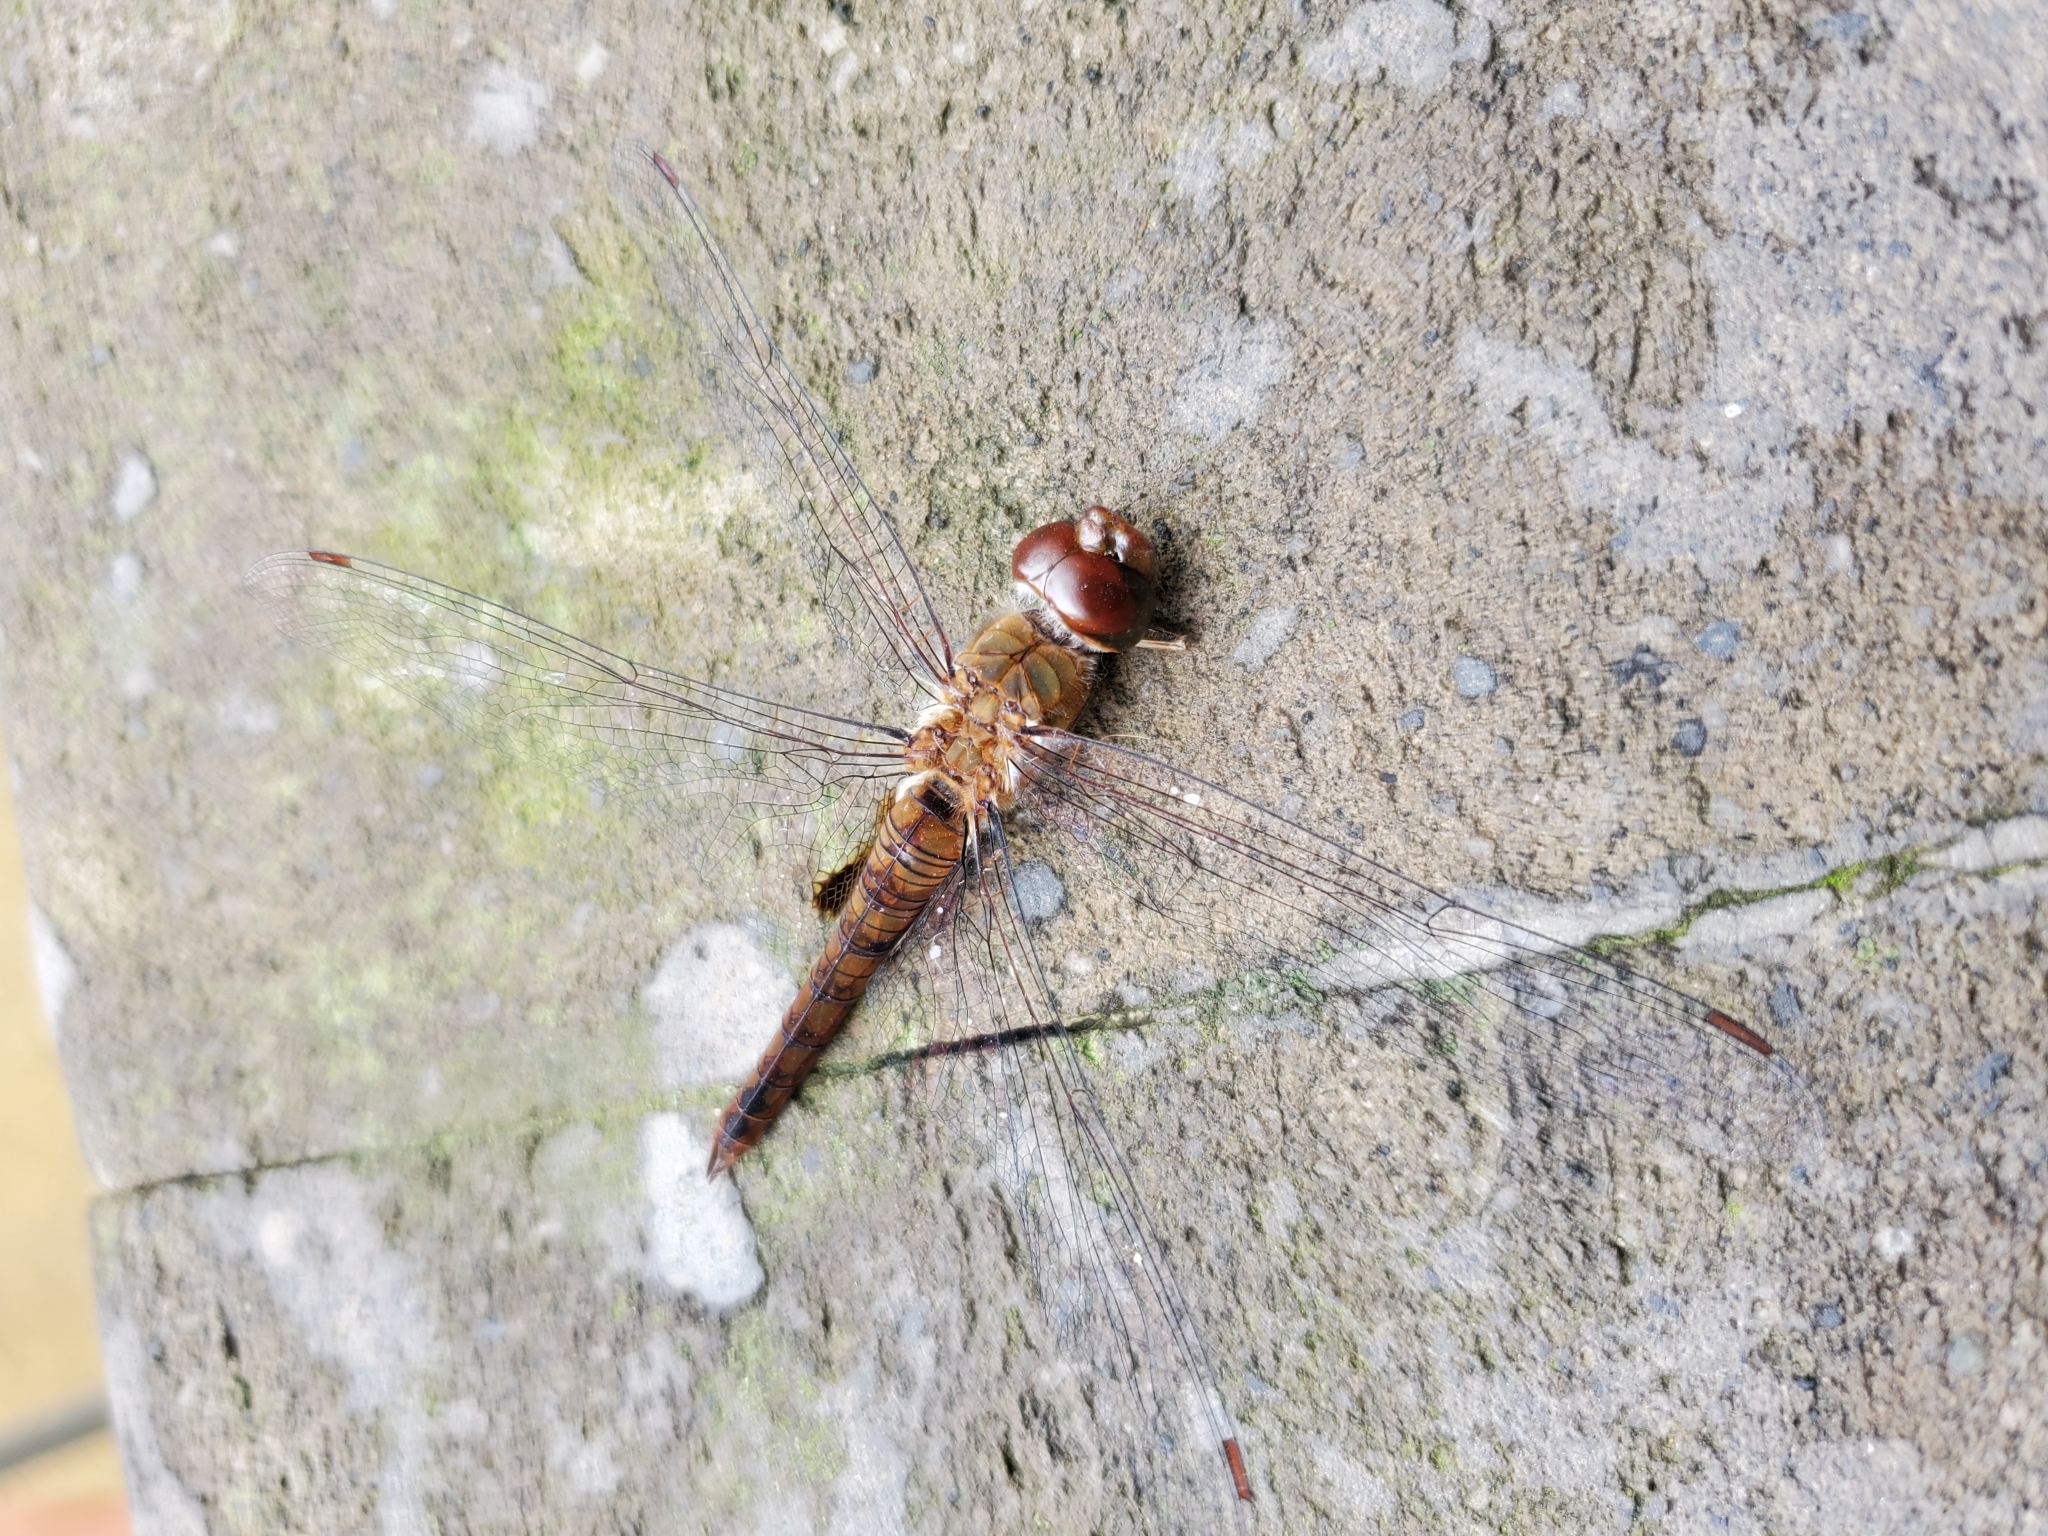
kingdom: Animalia
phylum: Arthropoda
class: Insecta
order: Odonata
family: Libellulidae
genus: Pantala
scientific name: Pantala hymenaea
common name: Spot-winged glider
